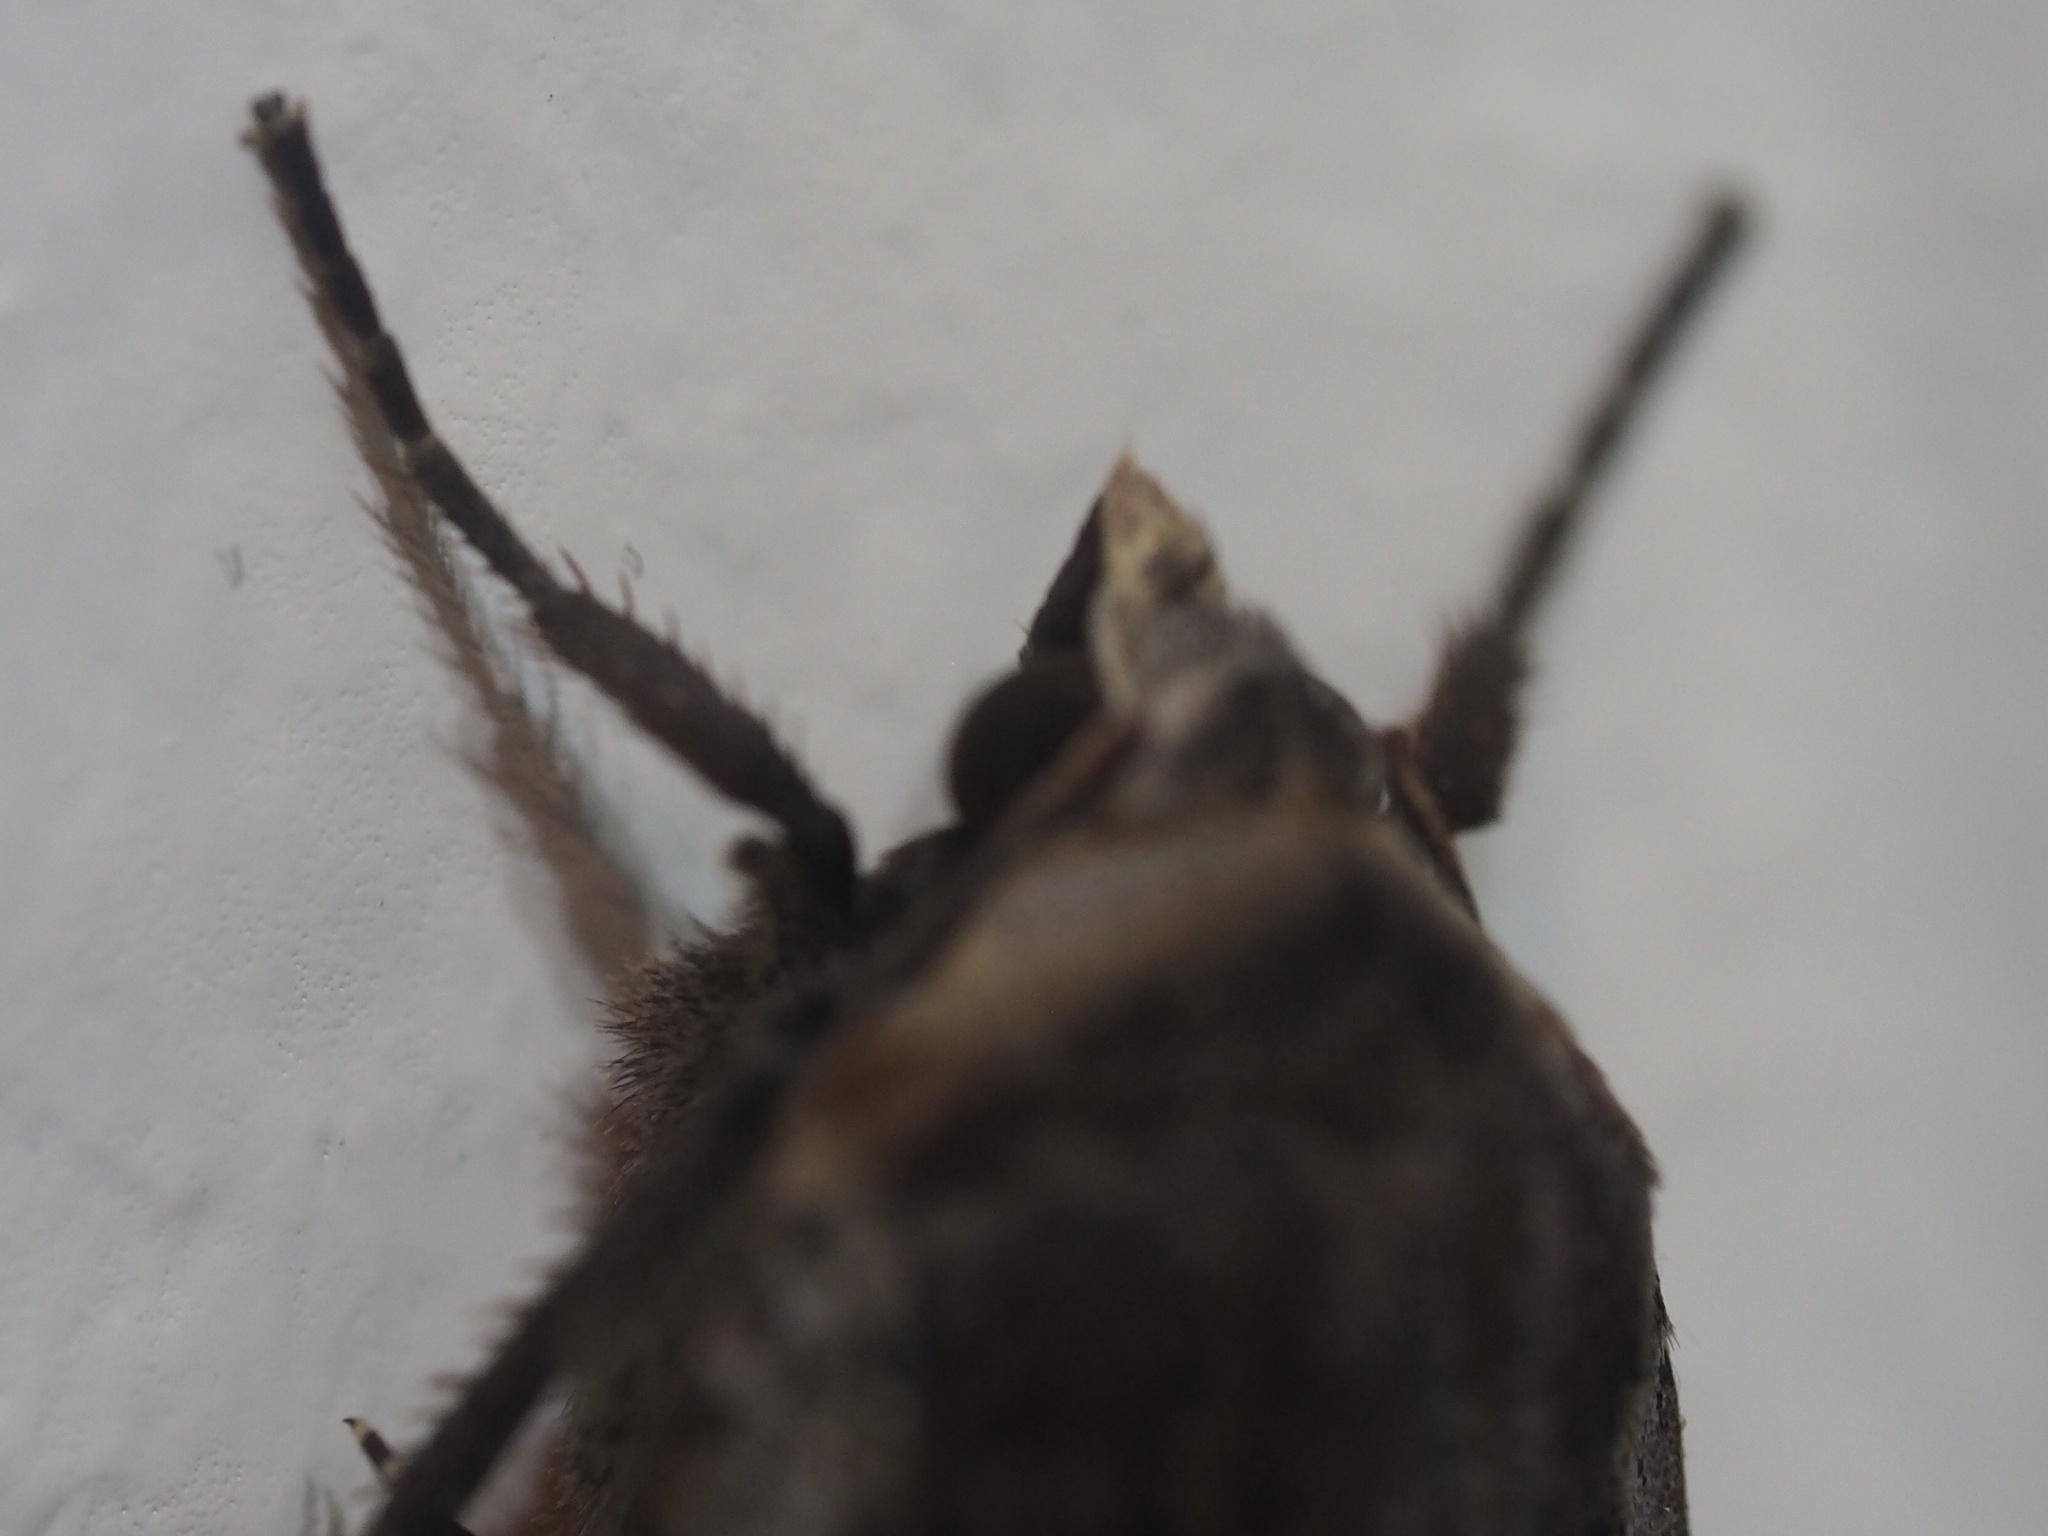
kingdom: Animalia
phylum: Arthropoda
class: Insecta
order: Lepidoptera
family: Noctuidae
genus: Noctua
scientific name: Noctua pronuba
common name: Large yellow underwing
